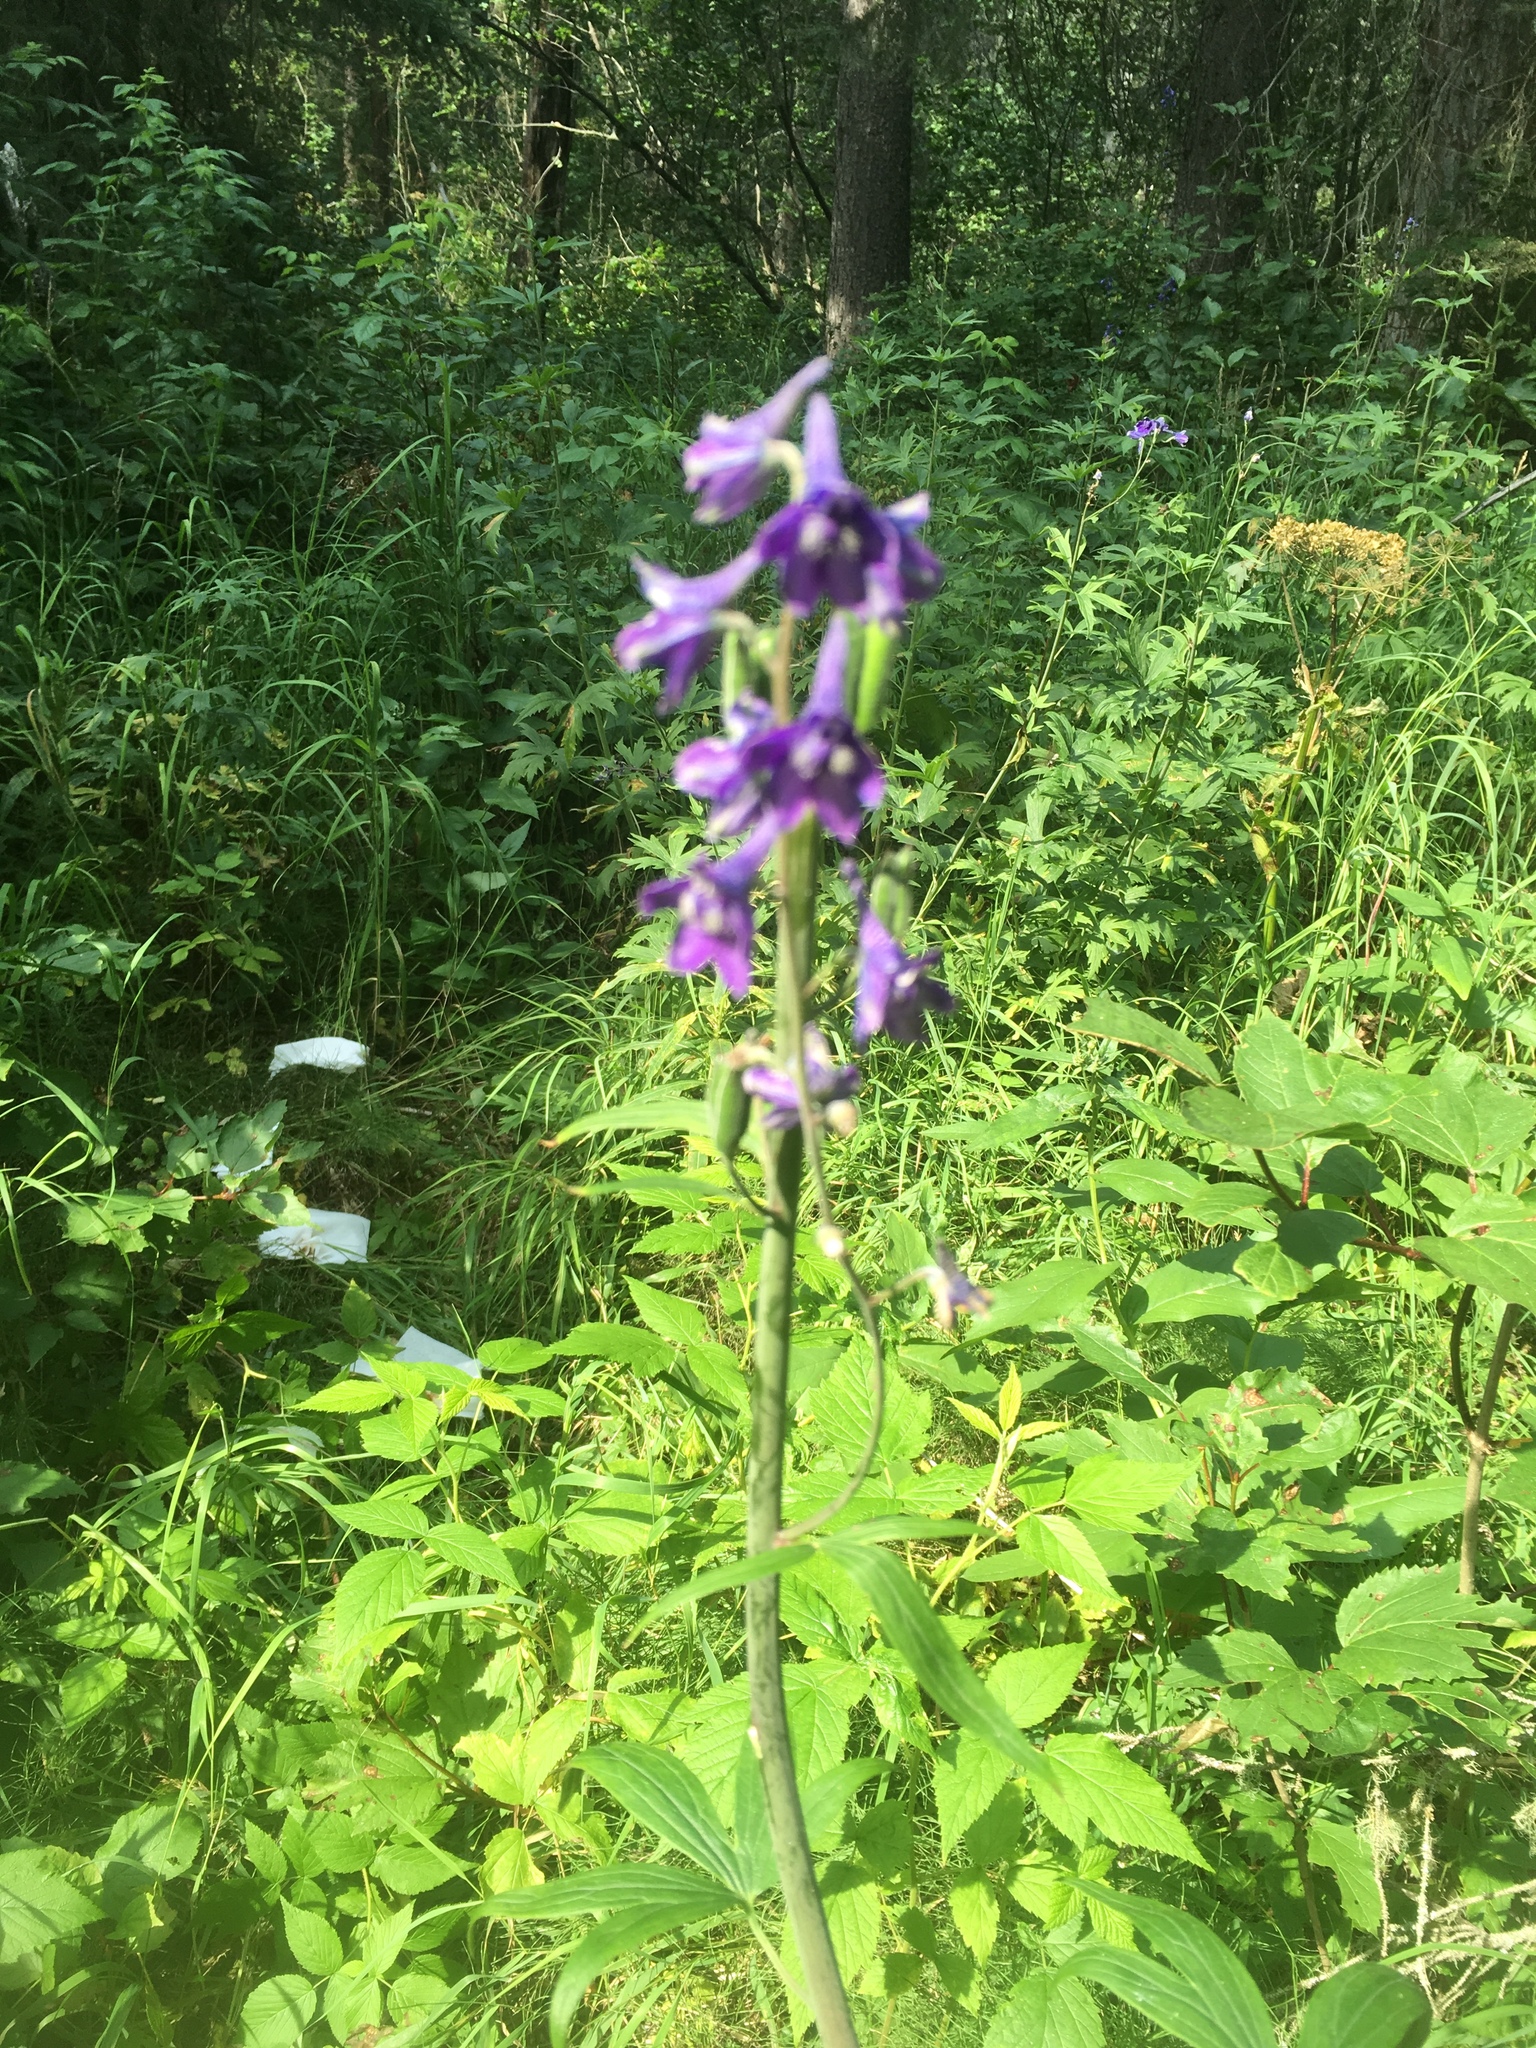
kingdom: Plantae
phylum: Tracheophyta
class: Magnoliopsida
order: Ranunculales
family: Ranunculaceae
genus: Delphinium
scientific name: Delphinium glaucum
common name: Brown's larkspur
